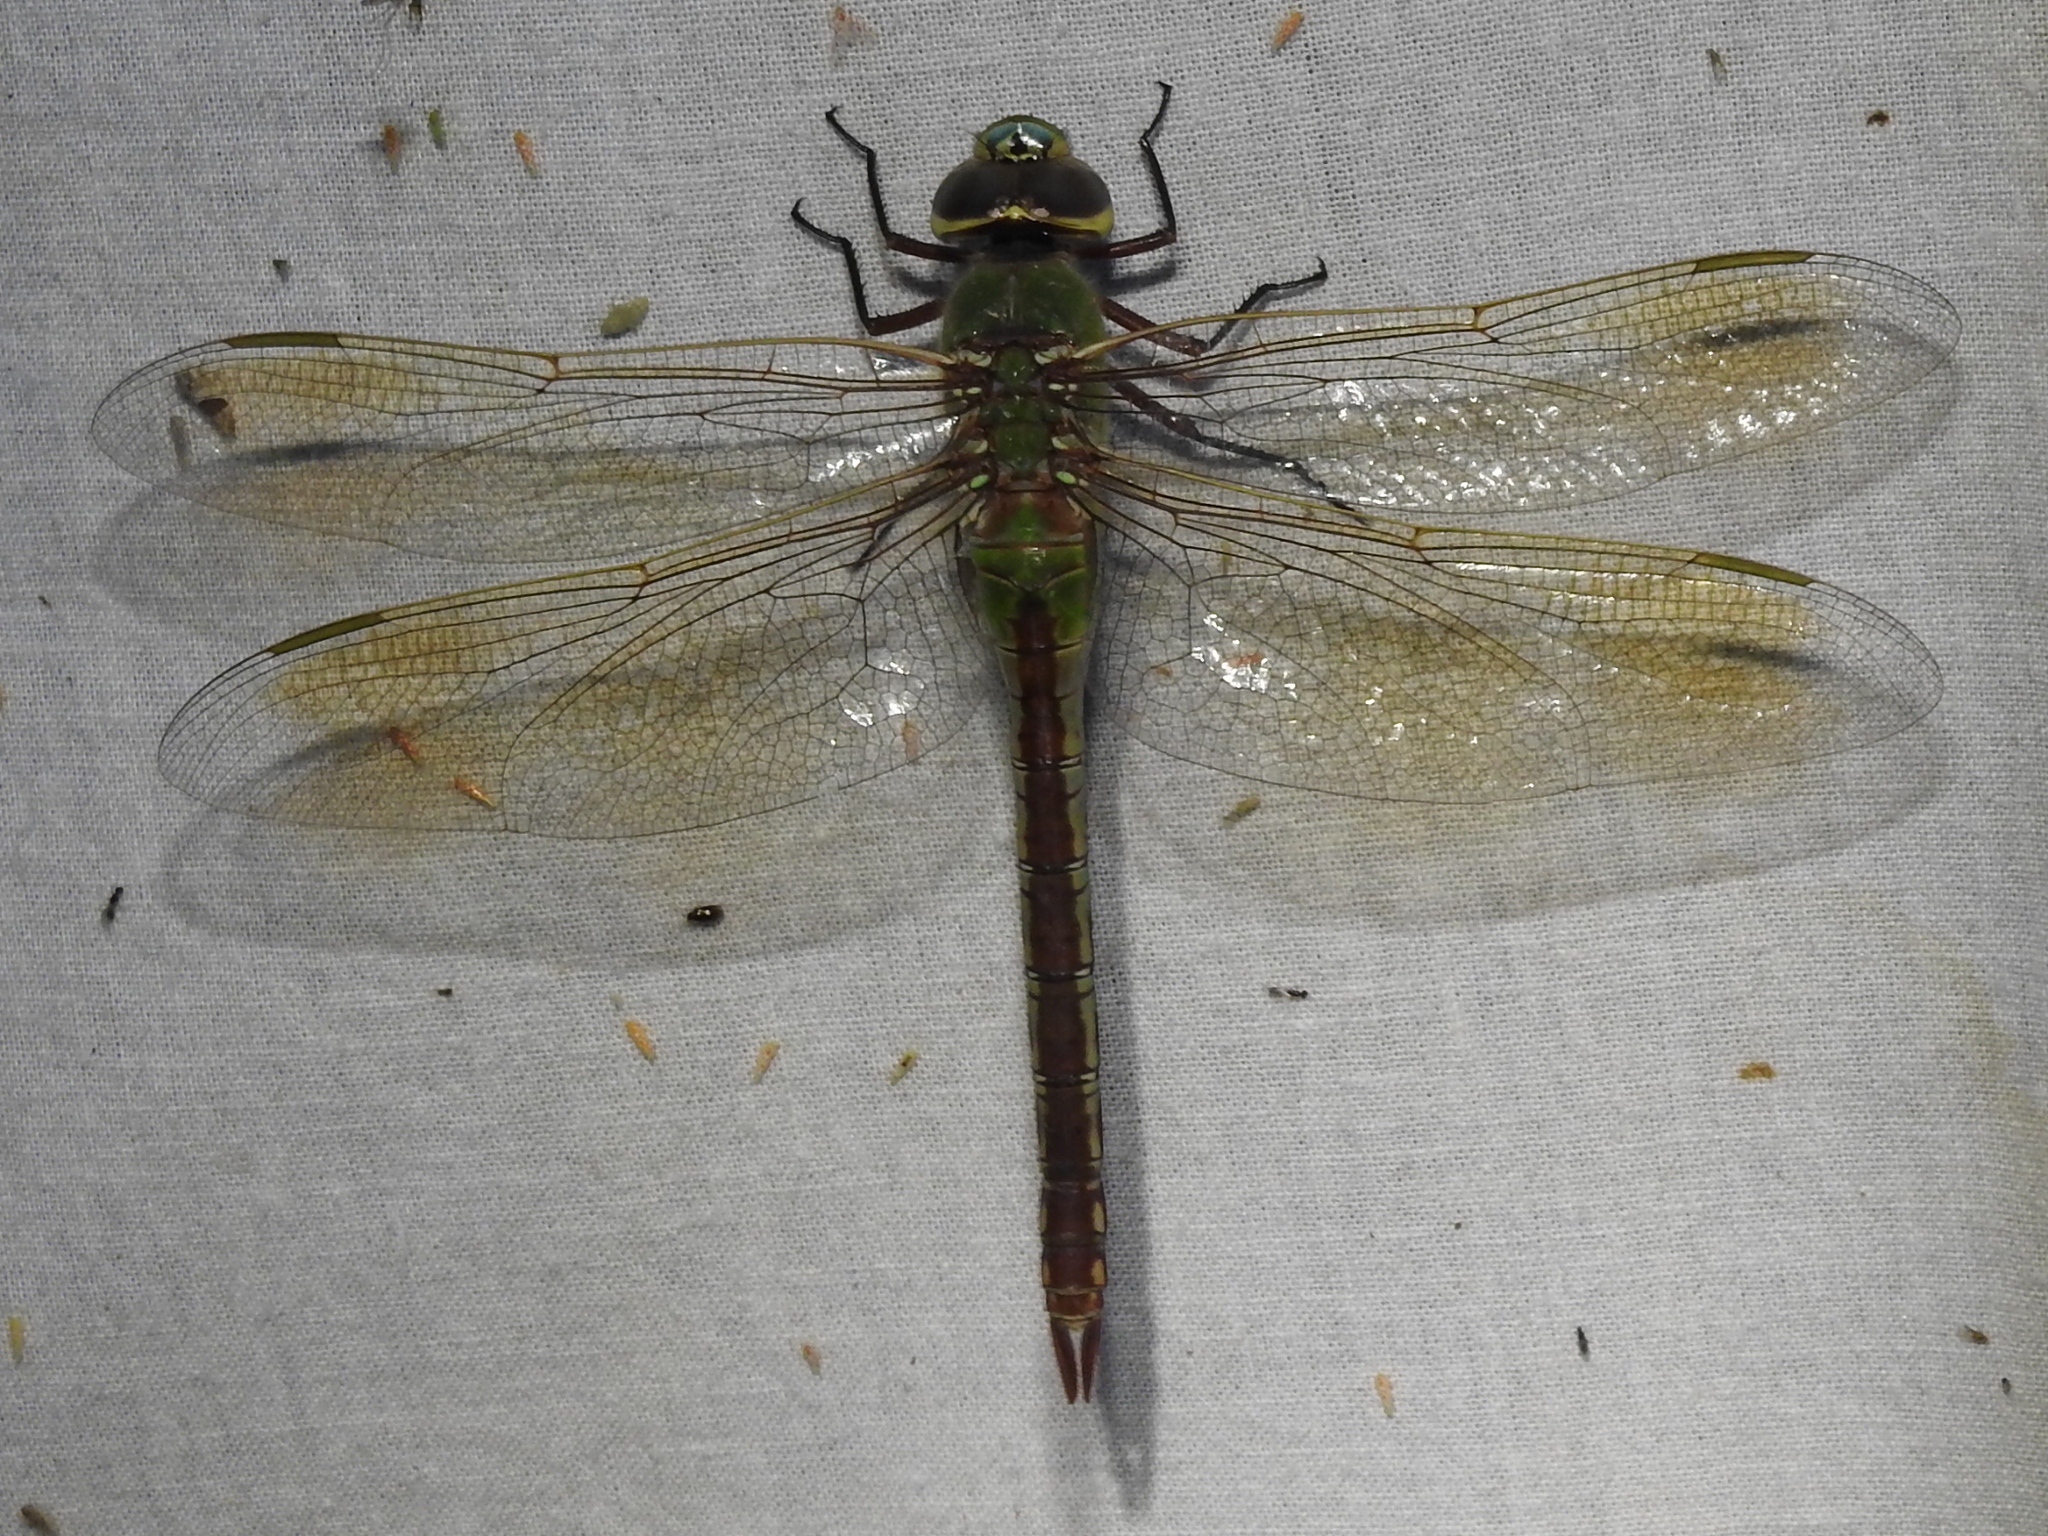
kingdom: Animalia
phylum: Arthropoda
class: Insecta
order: Odonata
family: Aeshnidae
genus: Anax
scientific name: Anax junius
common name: Common green darner
